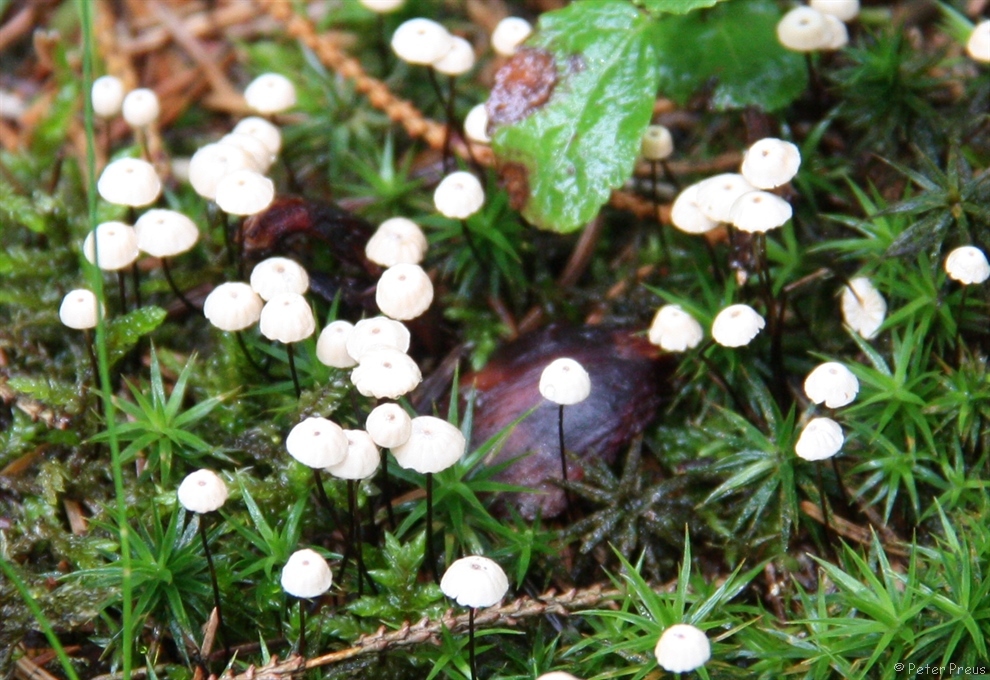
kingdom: Fungi
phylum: Basidiomycota
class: Agaricomycetes
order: Agaricales
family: Marasmiaceae
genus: Marasmius
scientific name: Marasmius wettsteinii
